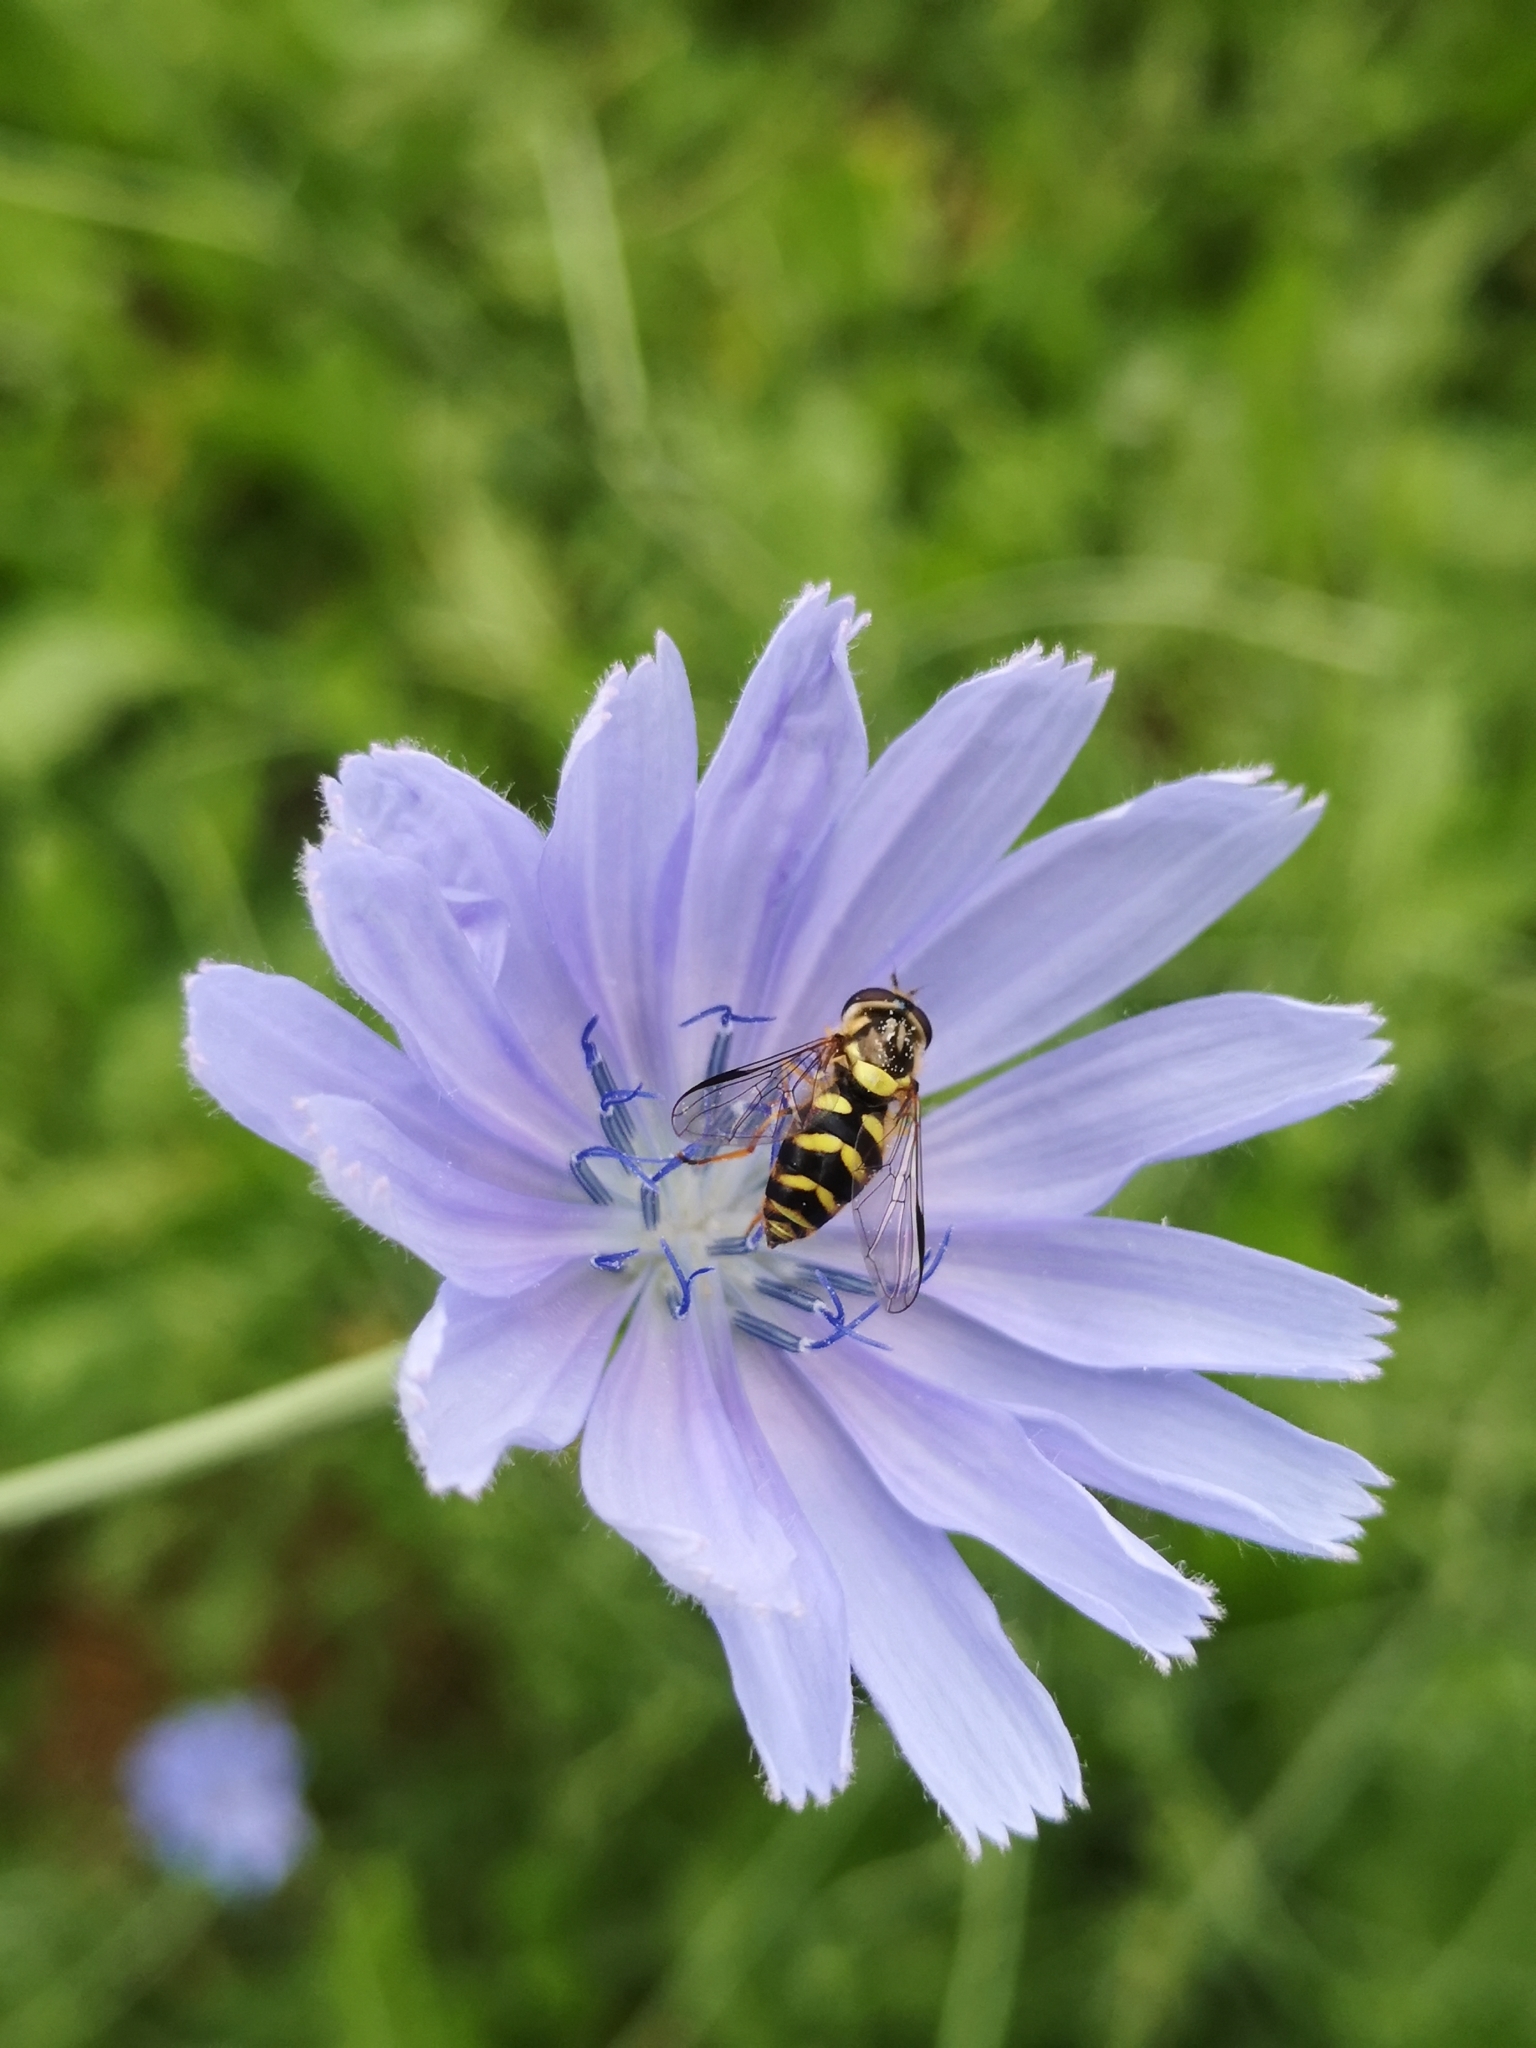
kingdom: Animalia
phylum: Arthropoda
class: Insecta
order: Diptera
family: Syrphidae
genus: Dasysyrphus
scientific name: Dasysyrphus albostriatus
